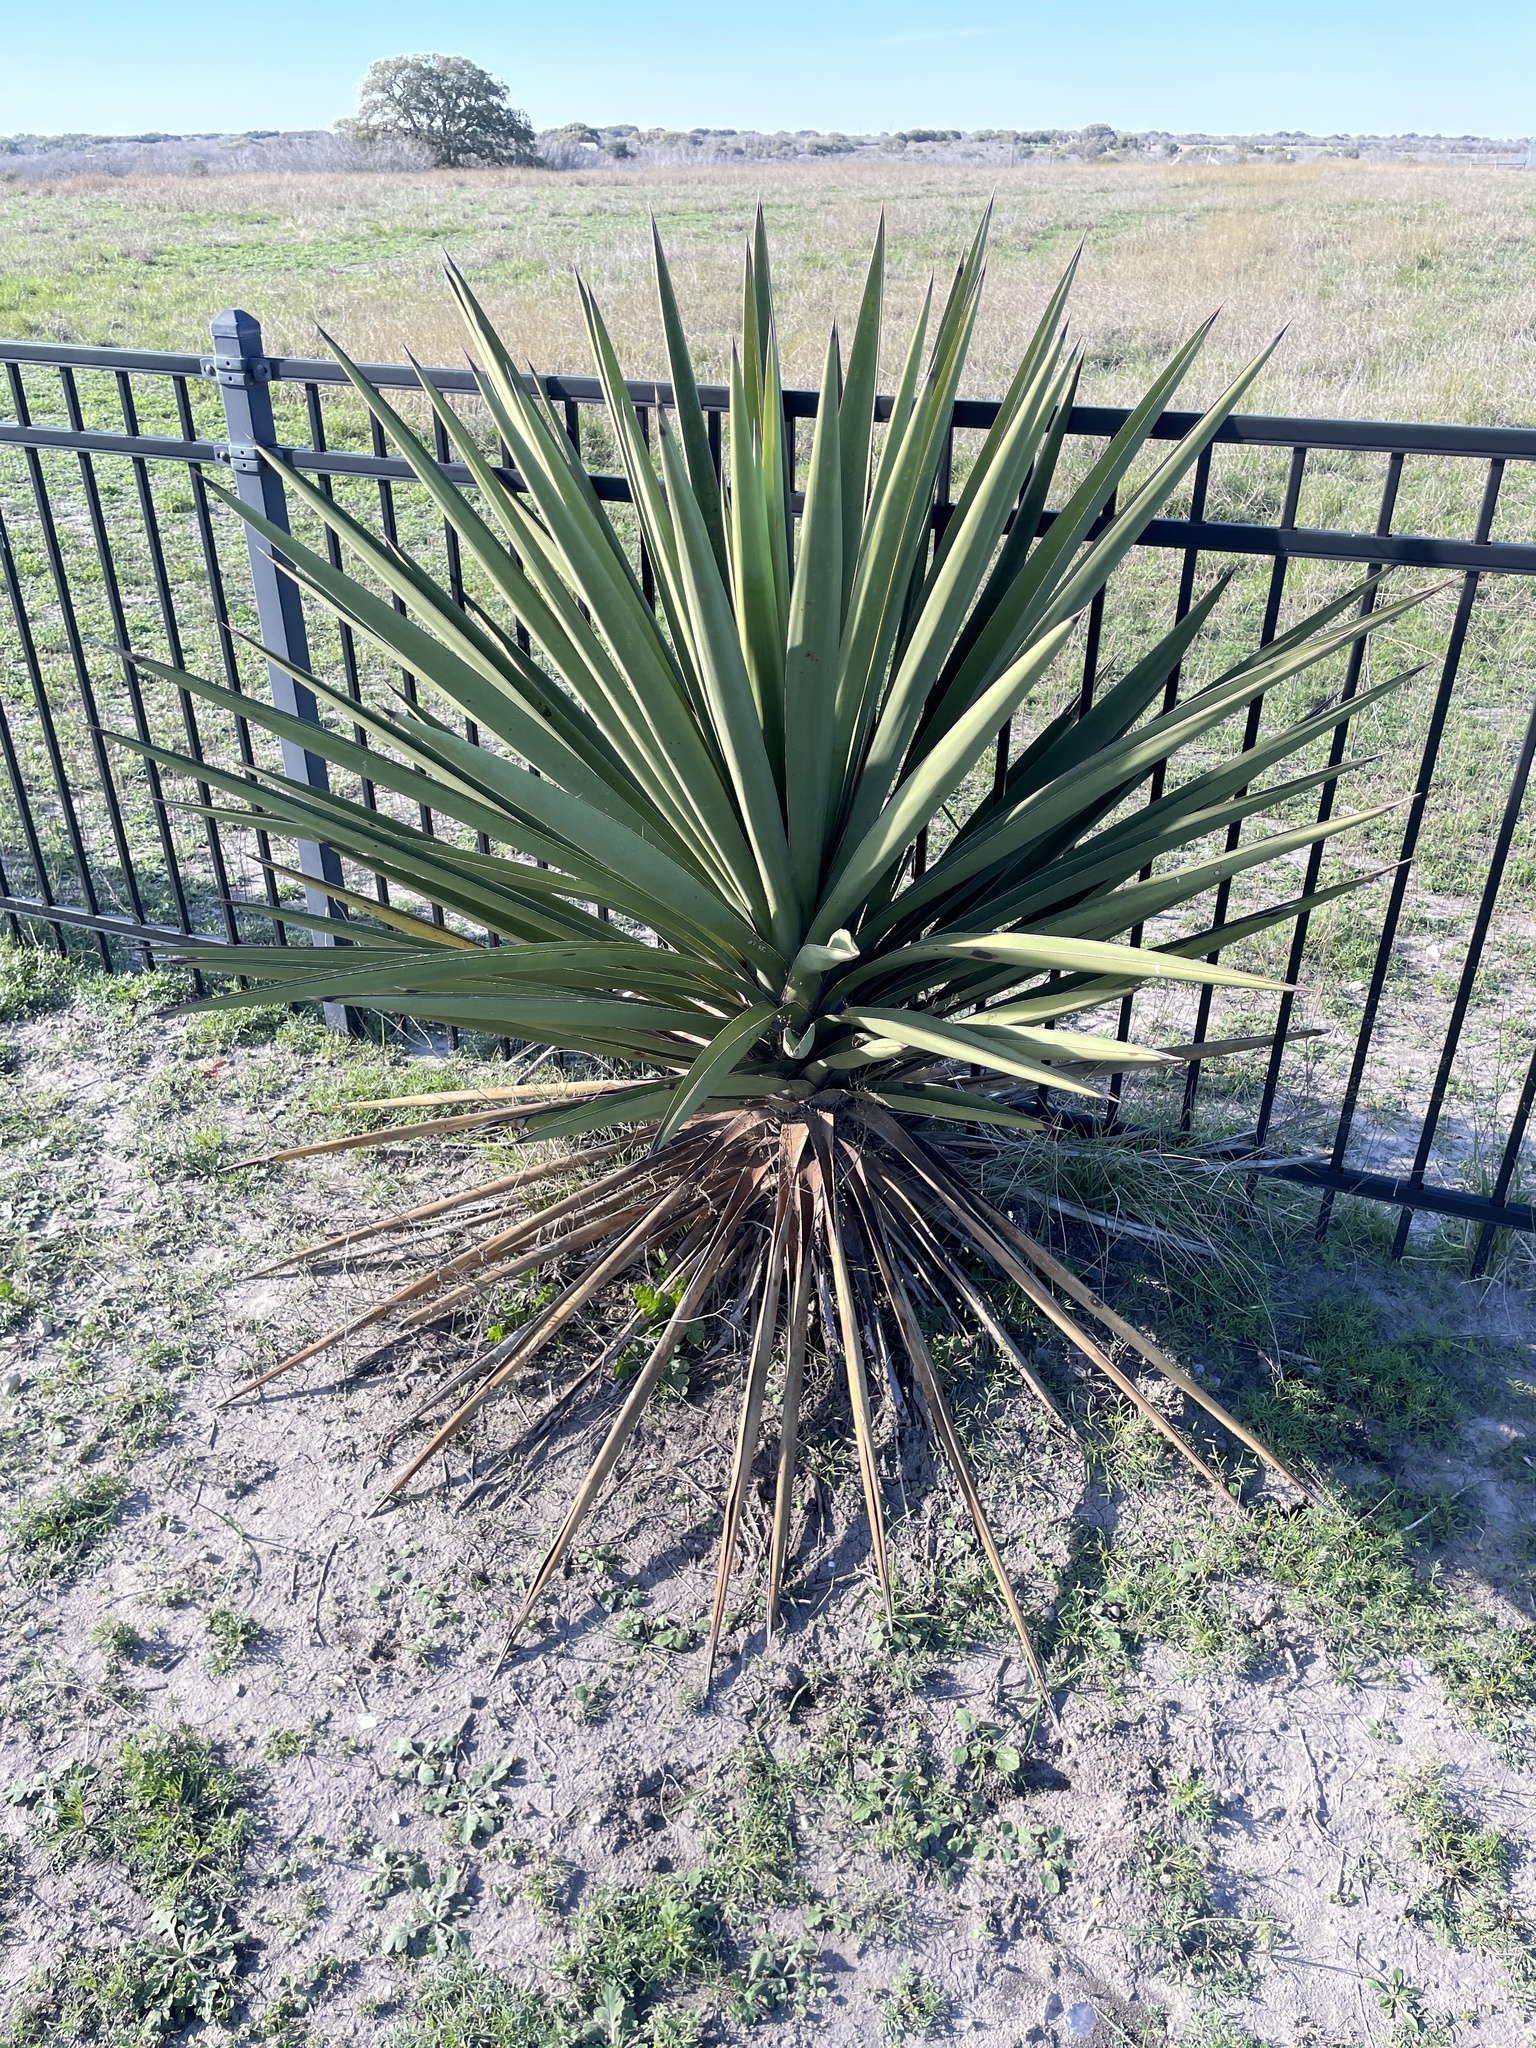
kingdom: Plantae
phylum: Tracheophyta
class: Liliopsida
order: Asparagales
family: Asparagaceae
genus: Yucca
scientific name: Yucca treculiana
